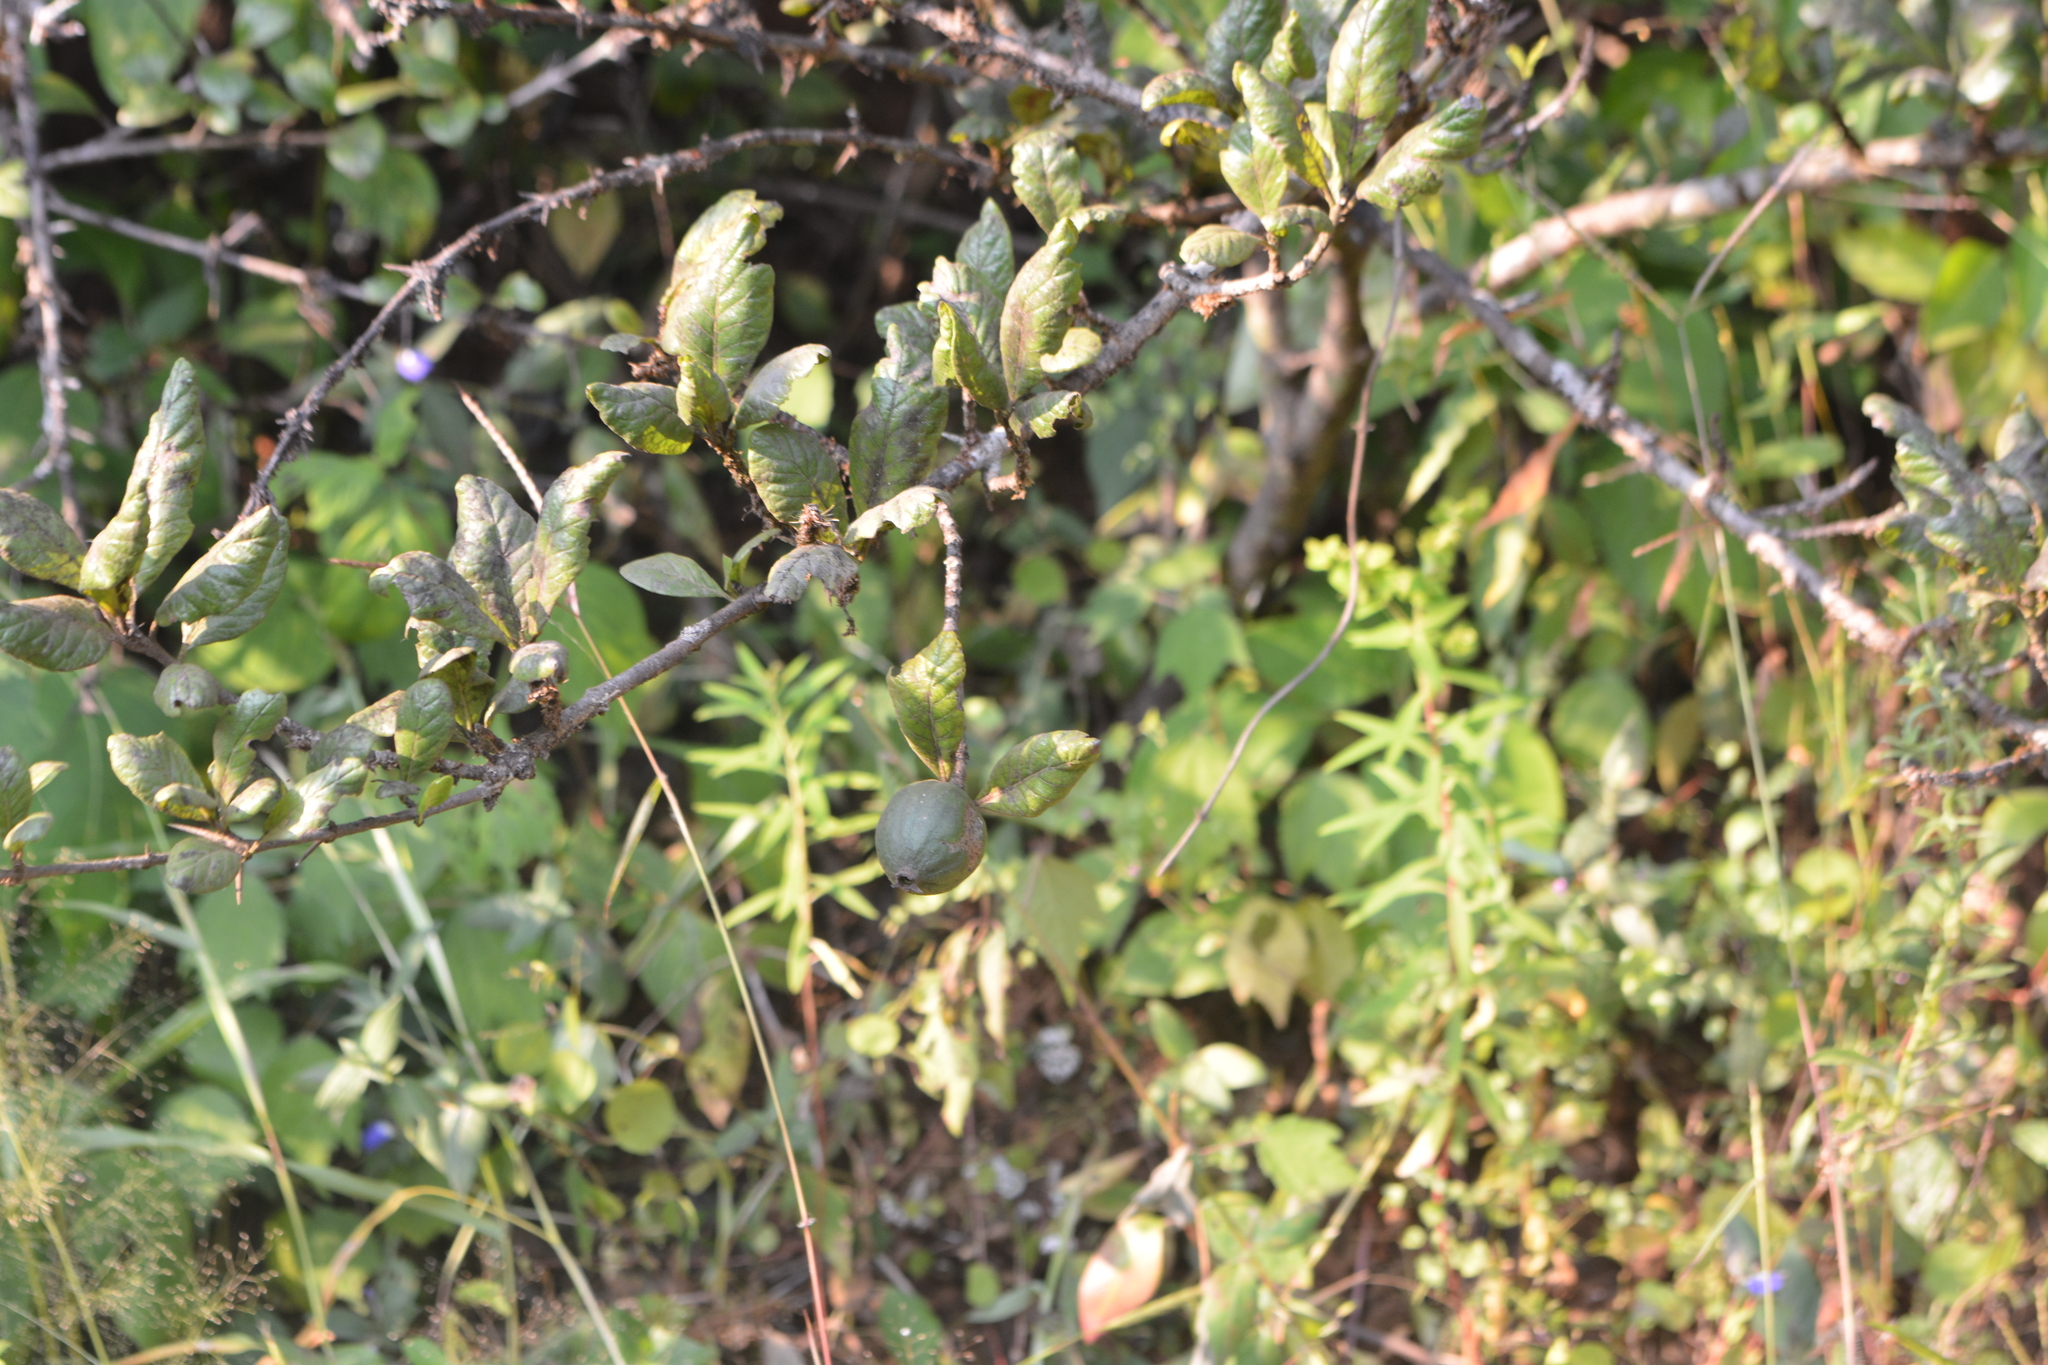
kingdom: Plantae
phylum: Tracheophyta
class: Magnoliopsida
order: Gentianales
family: Rubiaceae
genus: Catunaregam
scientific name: Catunaregam spinosa
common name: Emetic-nut
